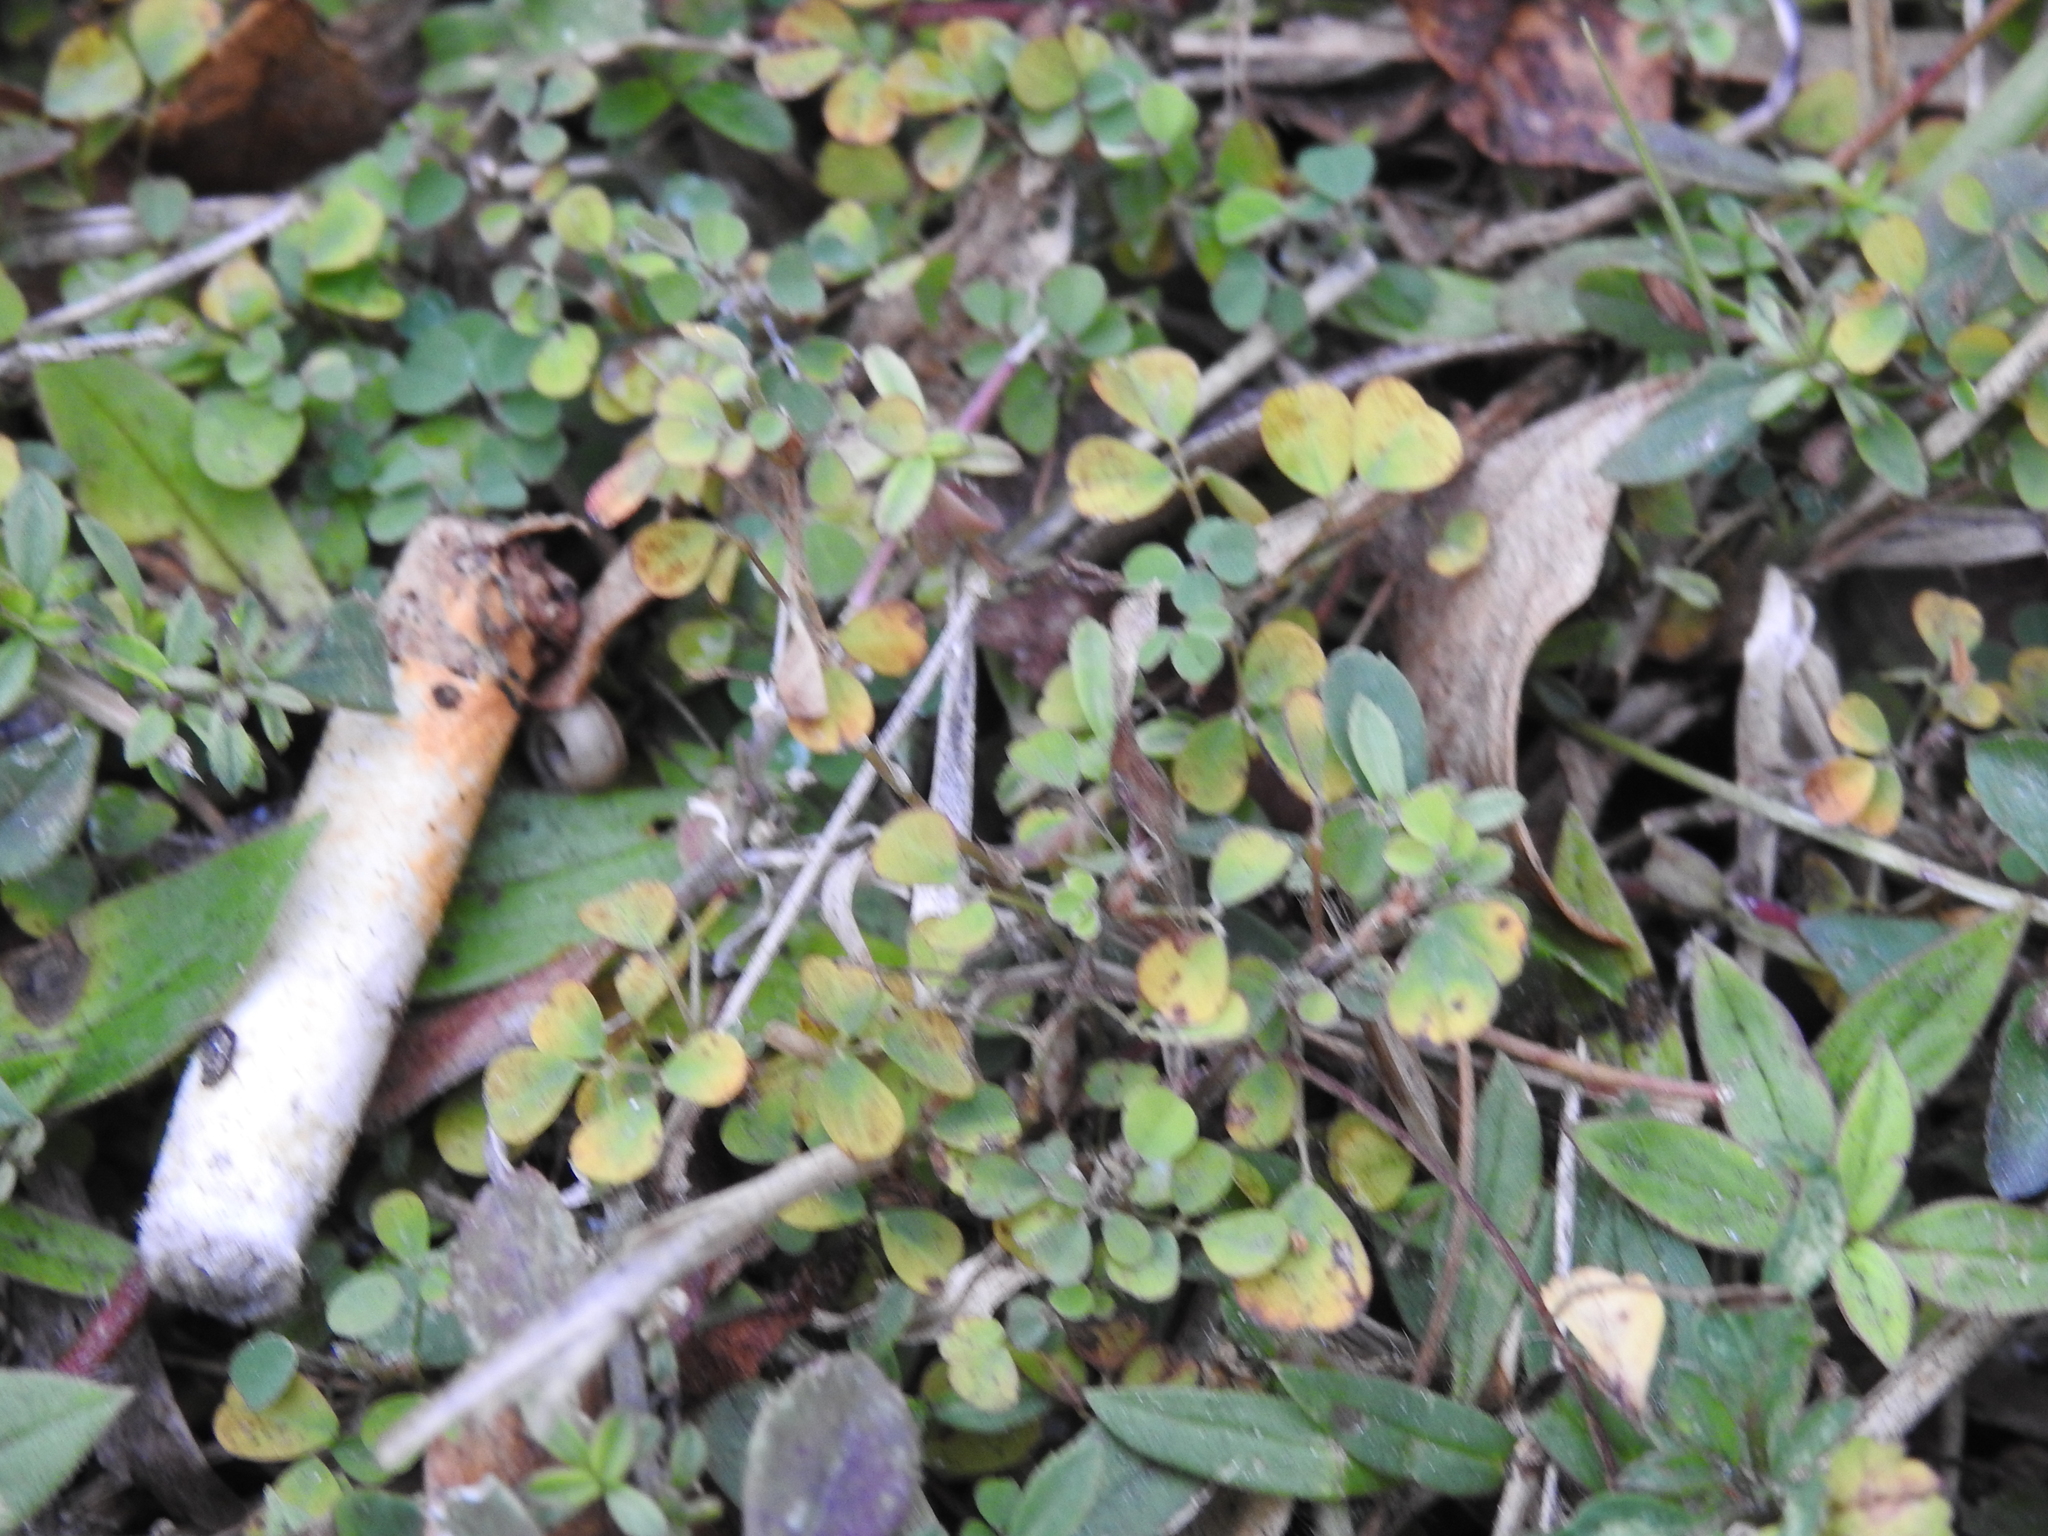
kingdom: Plantae
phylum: Tracheophyta
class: Magnoliopsida
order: Fabales
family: Fabaceae
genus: Grona
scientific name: Grona triflora
